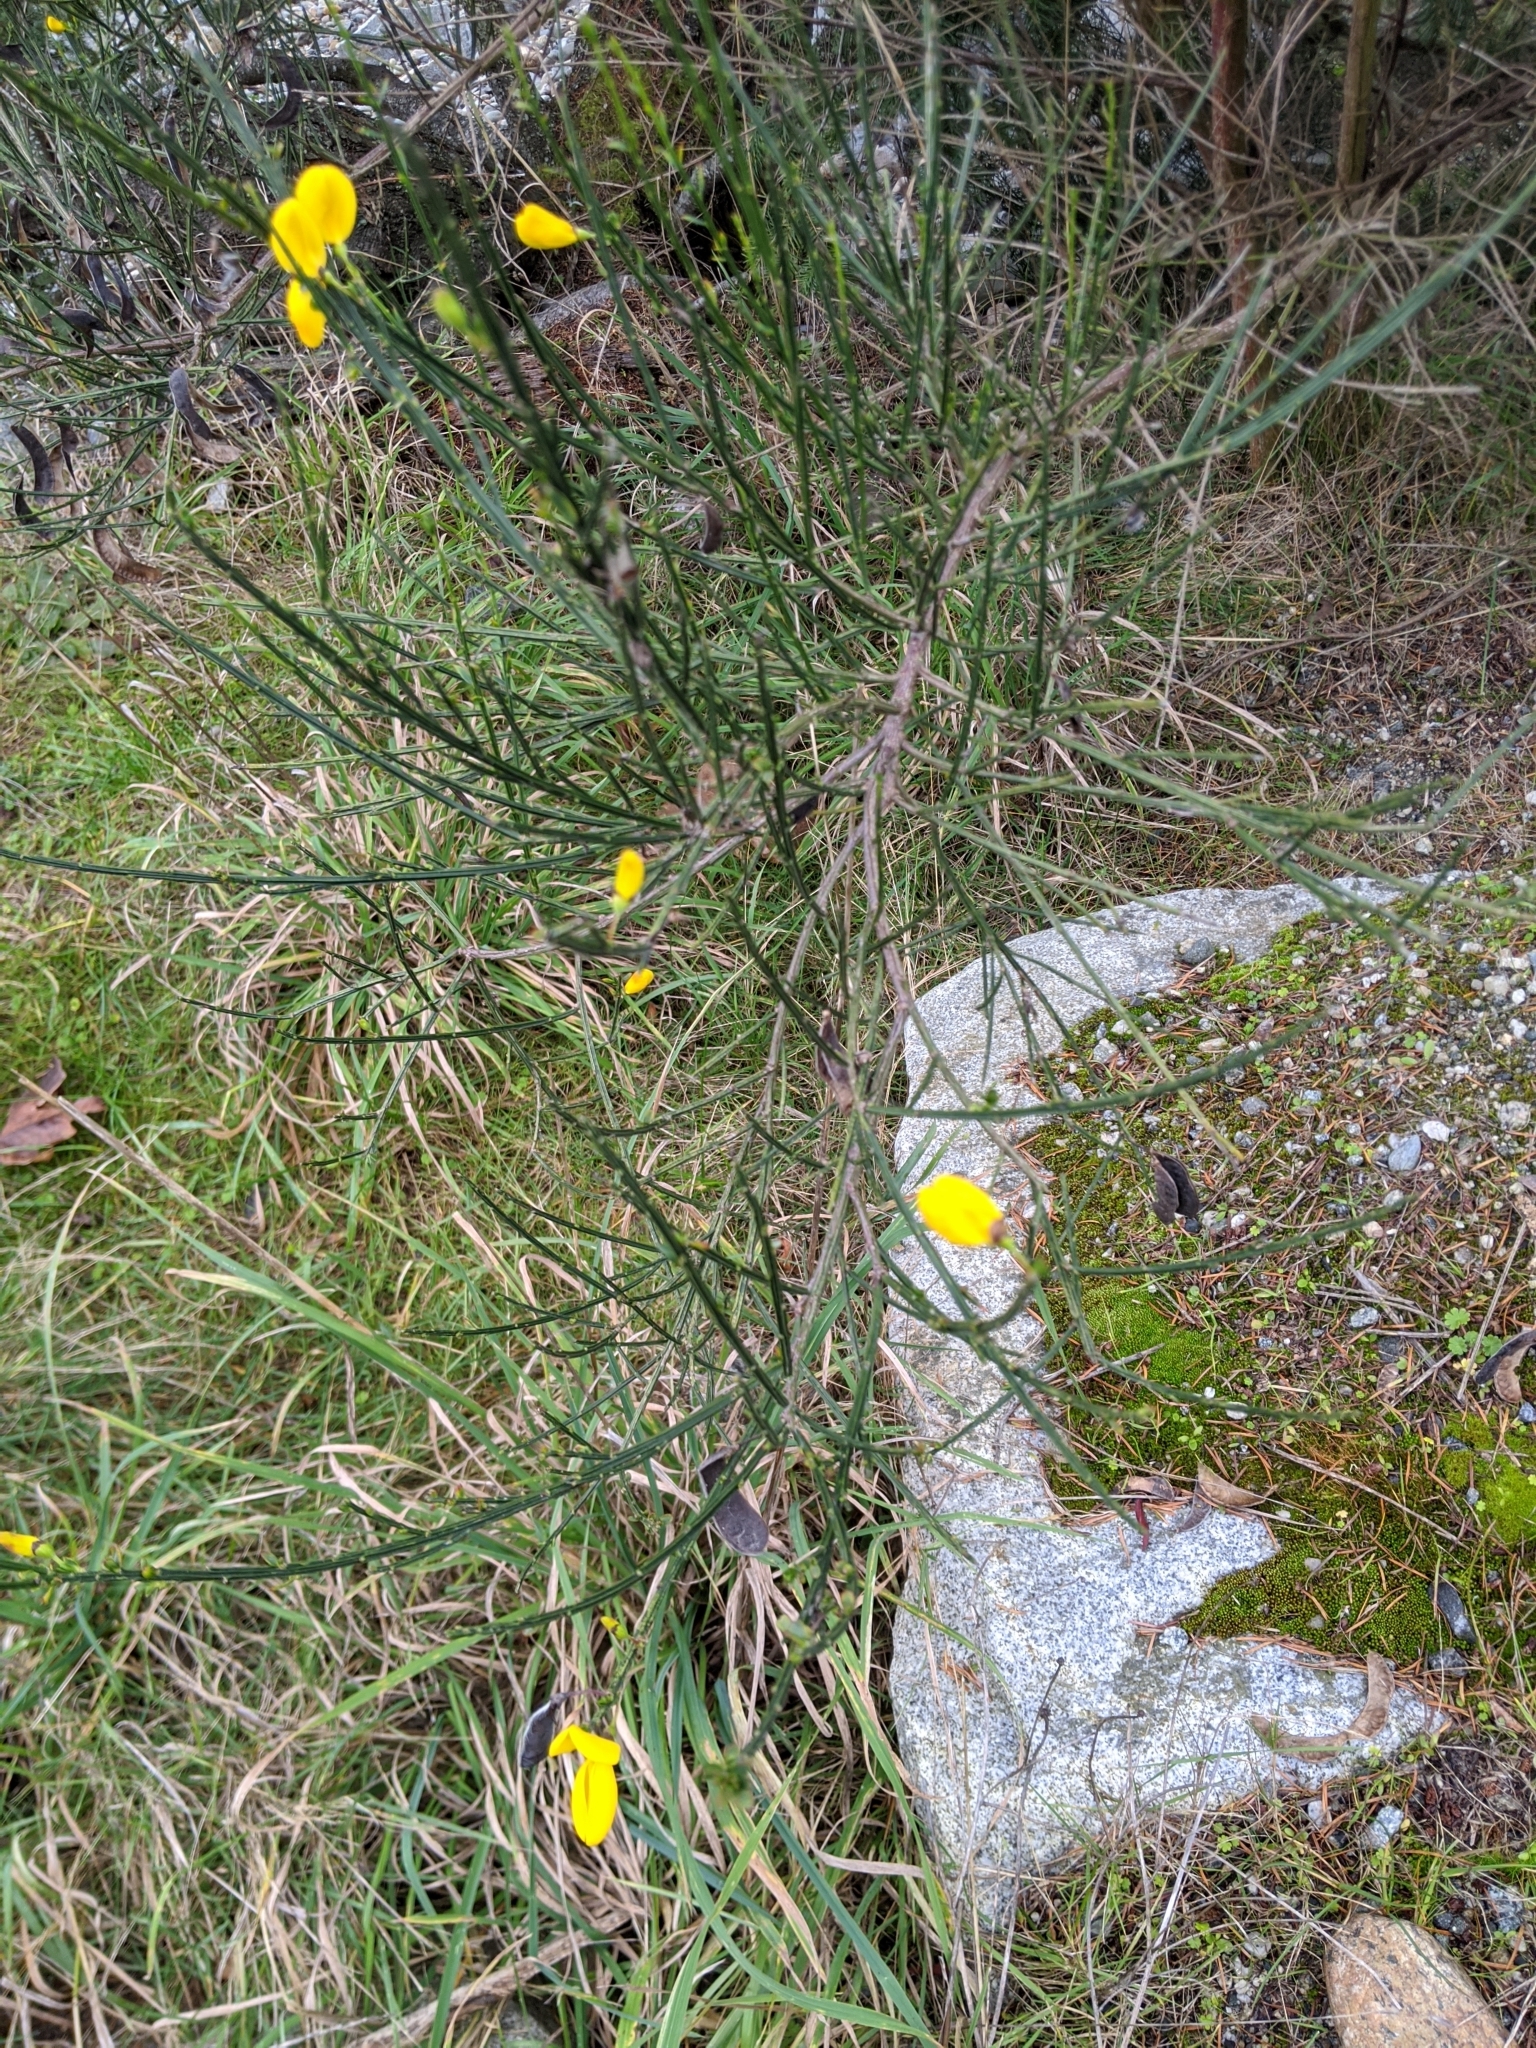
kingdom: Plantae
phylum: Tracheophyta
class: Magnoliopsida
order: Fabales
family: Fabaceae
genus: Cytisus
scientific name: Cytisus scoparius
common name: Scotch broom
